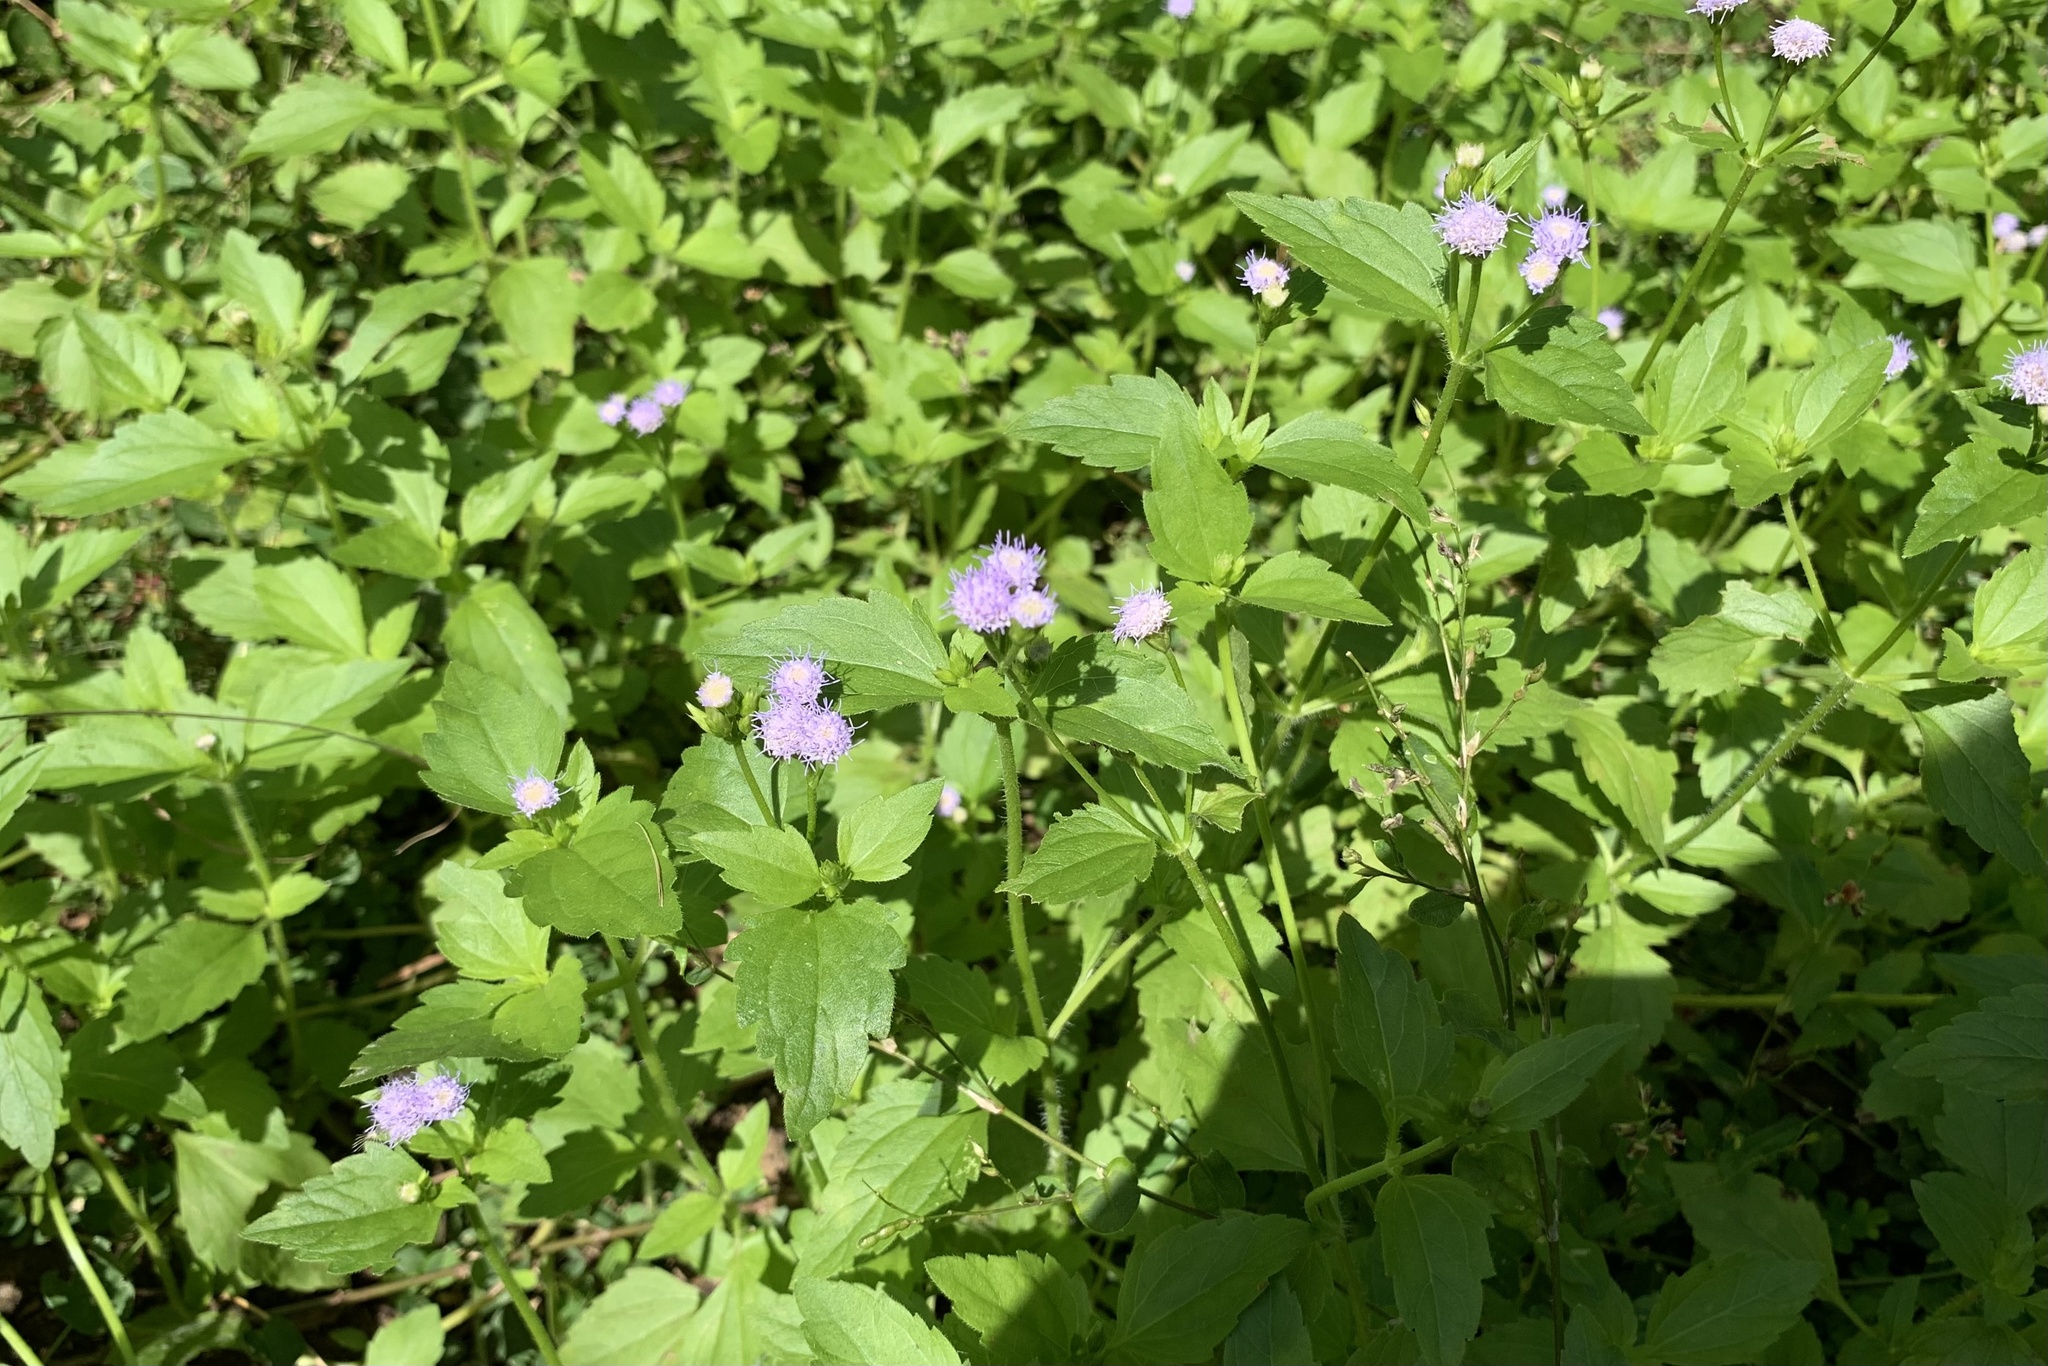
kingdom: Plantae
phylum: Tracheophyta
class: Magnoliopsida
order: Asterales
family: Asteraceae
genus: Praxelis
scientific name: Praxelis clematidea
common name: Praxelis
